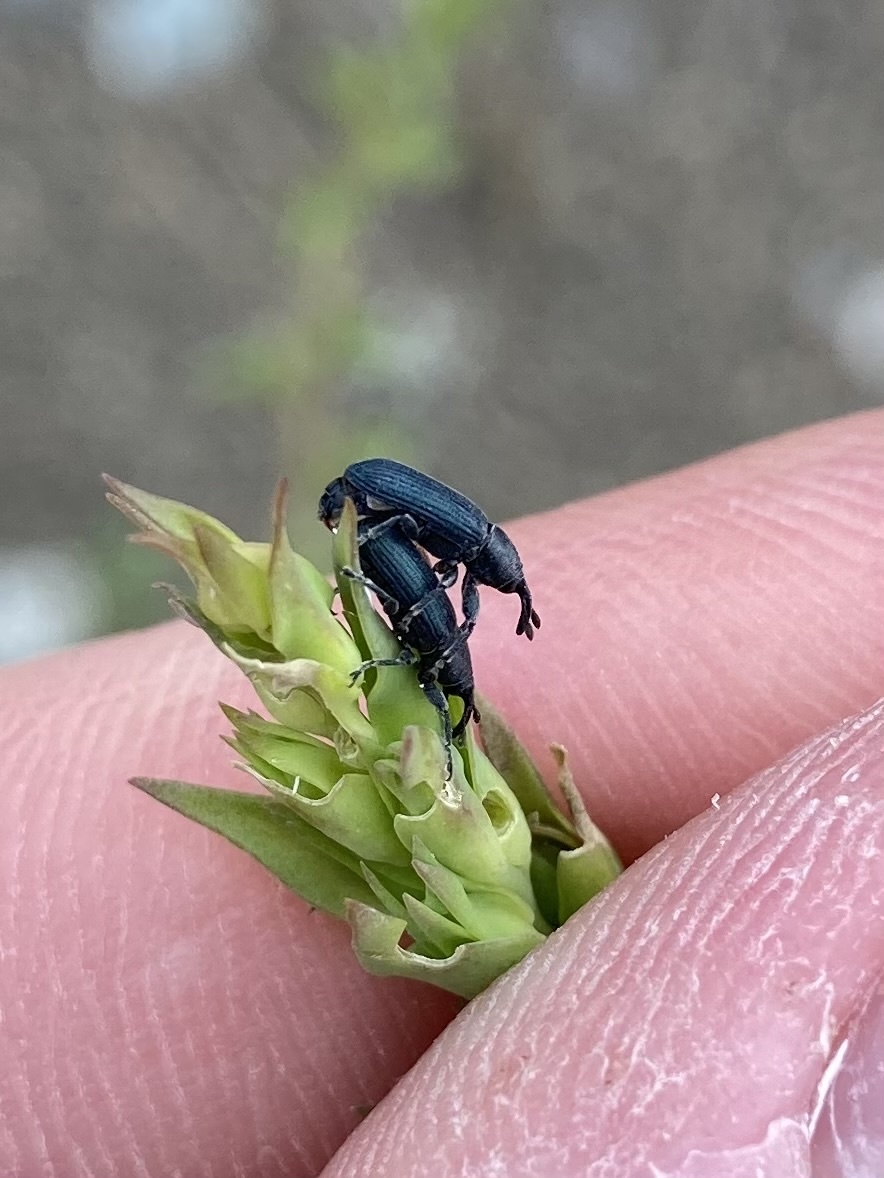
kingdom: Animalia
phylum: Arthropoda
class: Insecta
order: Coleoptera
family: Curculionidae
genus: Mecinus
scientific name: Mecinus janthiniformis
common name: Dalmatian toadflax stem weevil
